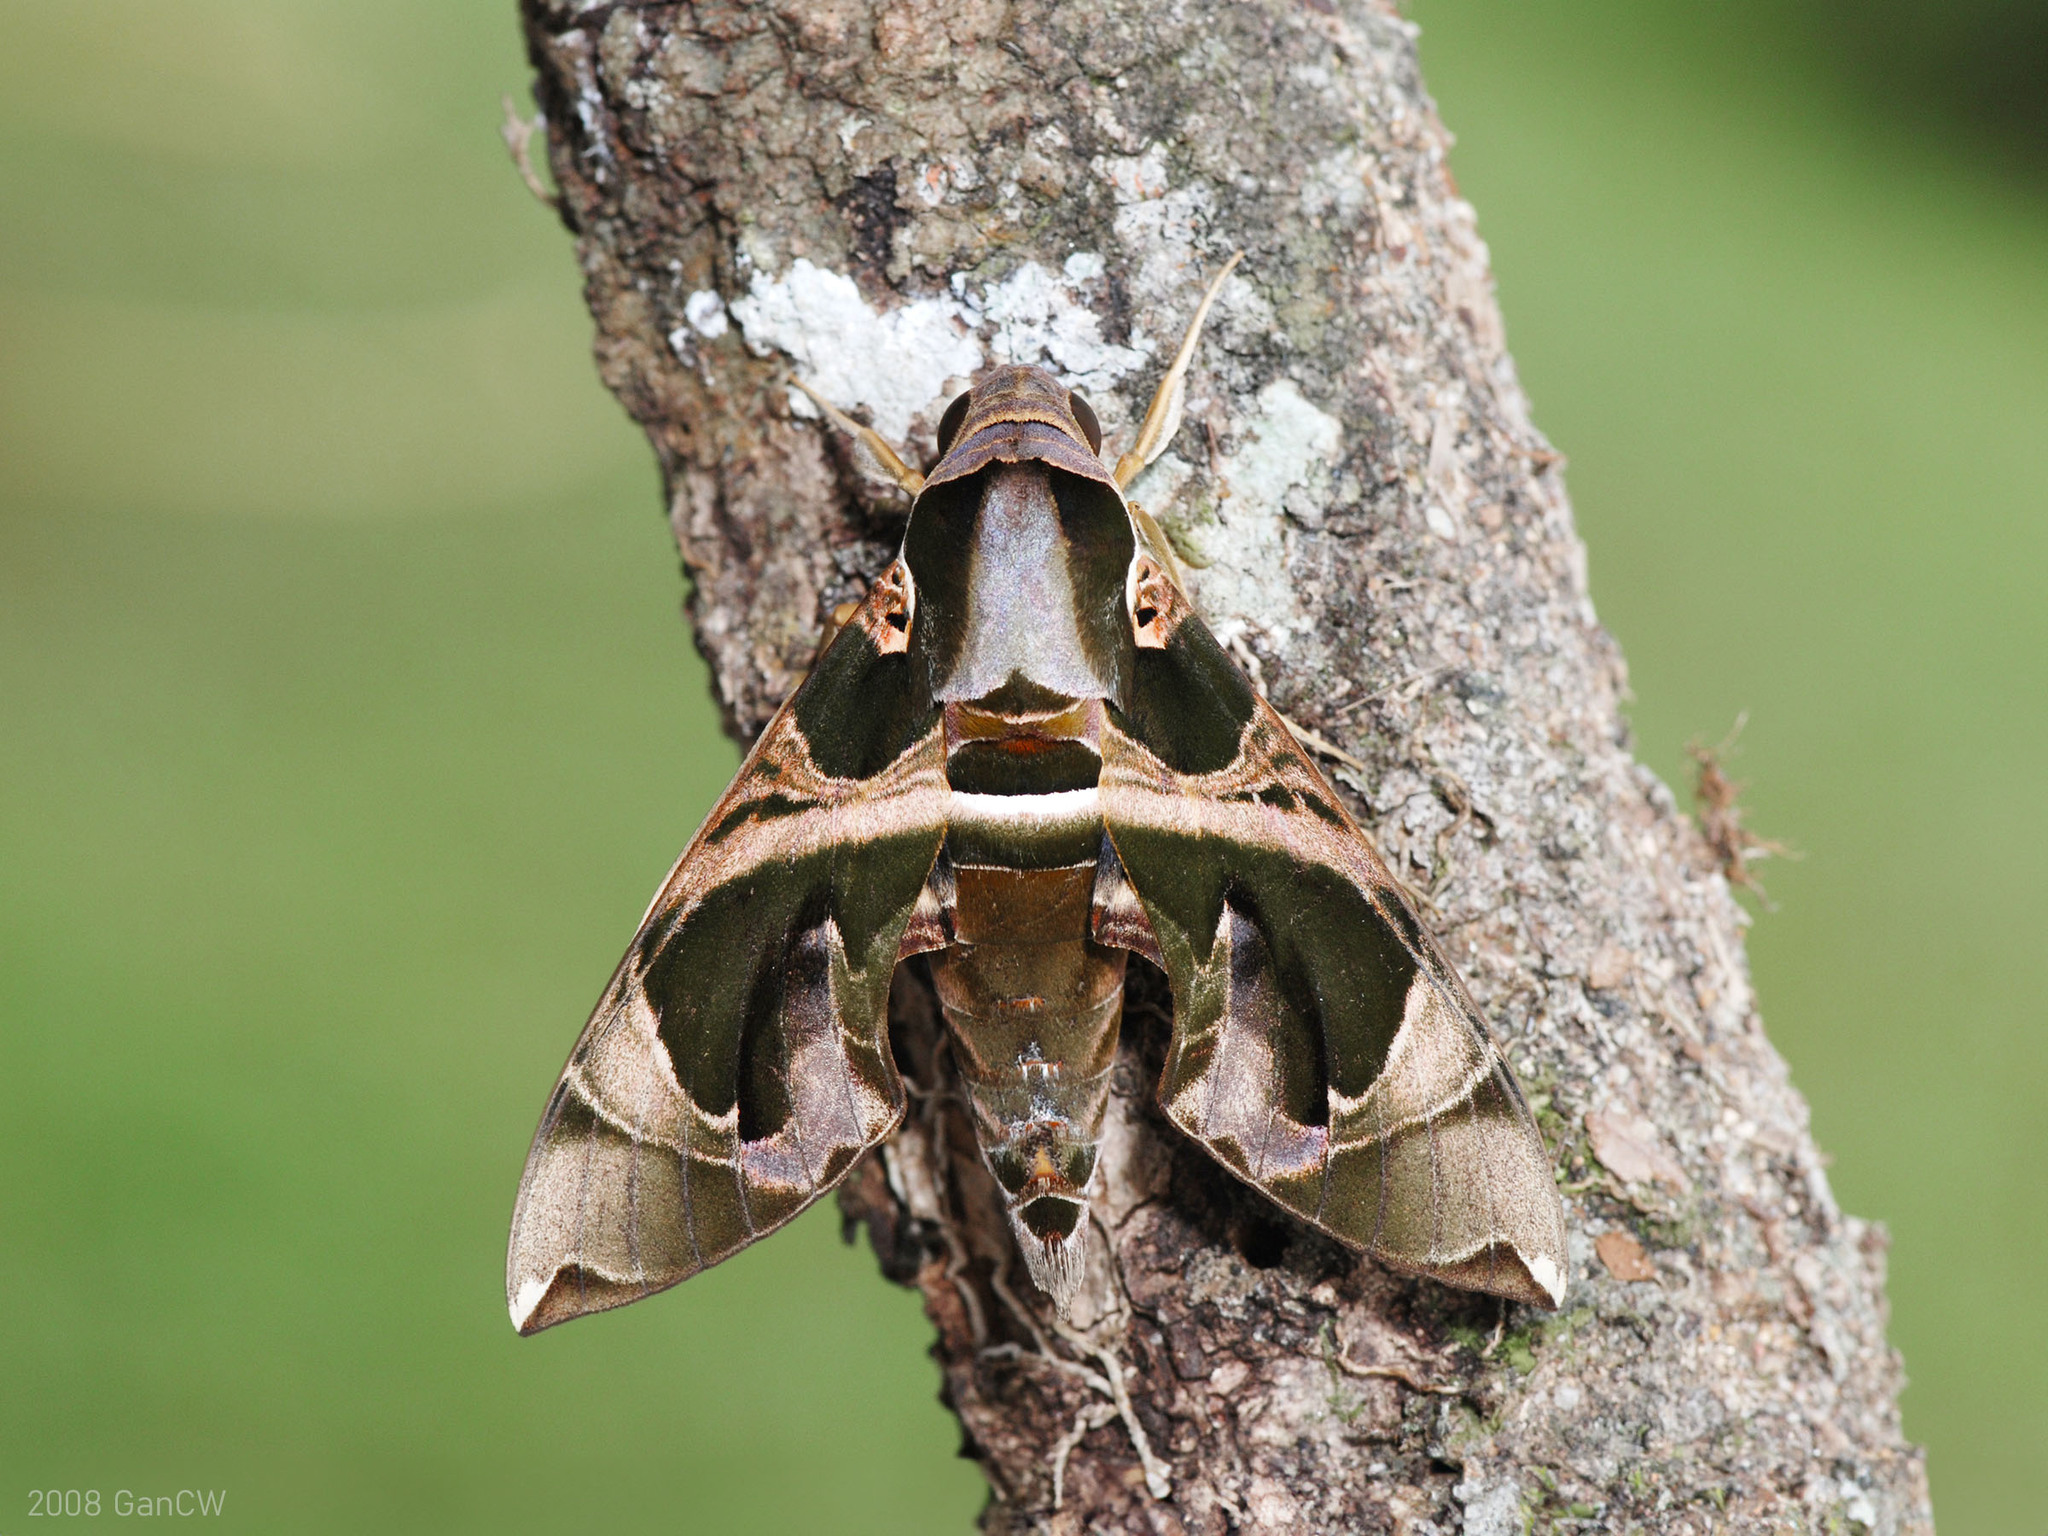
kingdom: Animalia
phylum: Arthropoda
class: Insecta
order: Lepidoptera
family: Sphingidae
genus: Daphnis
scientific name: Daphnis hypothous
